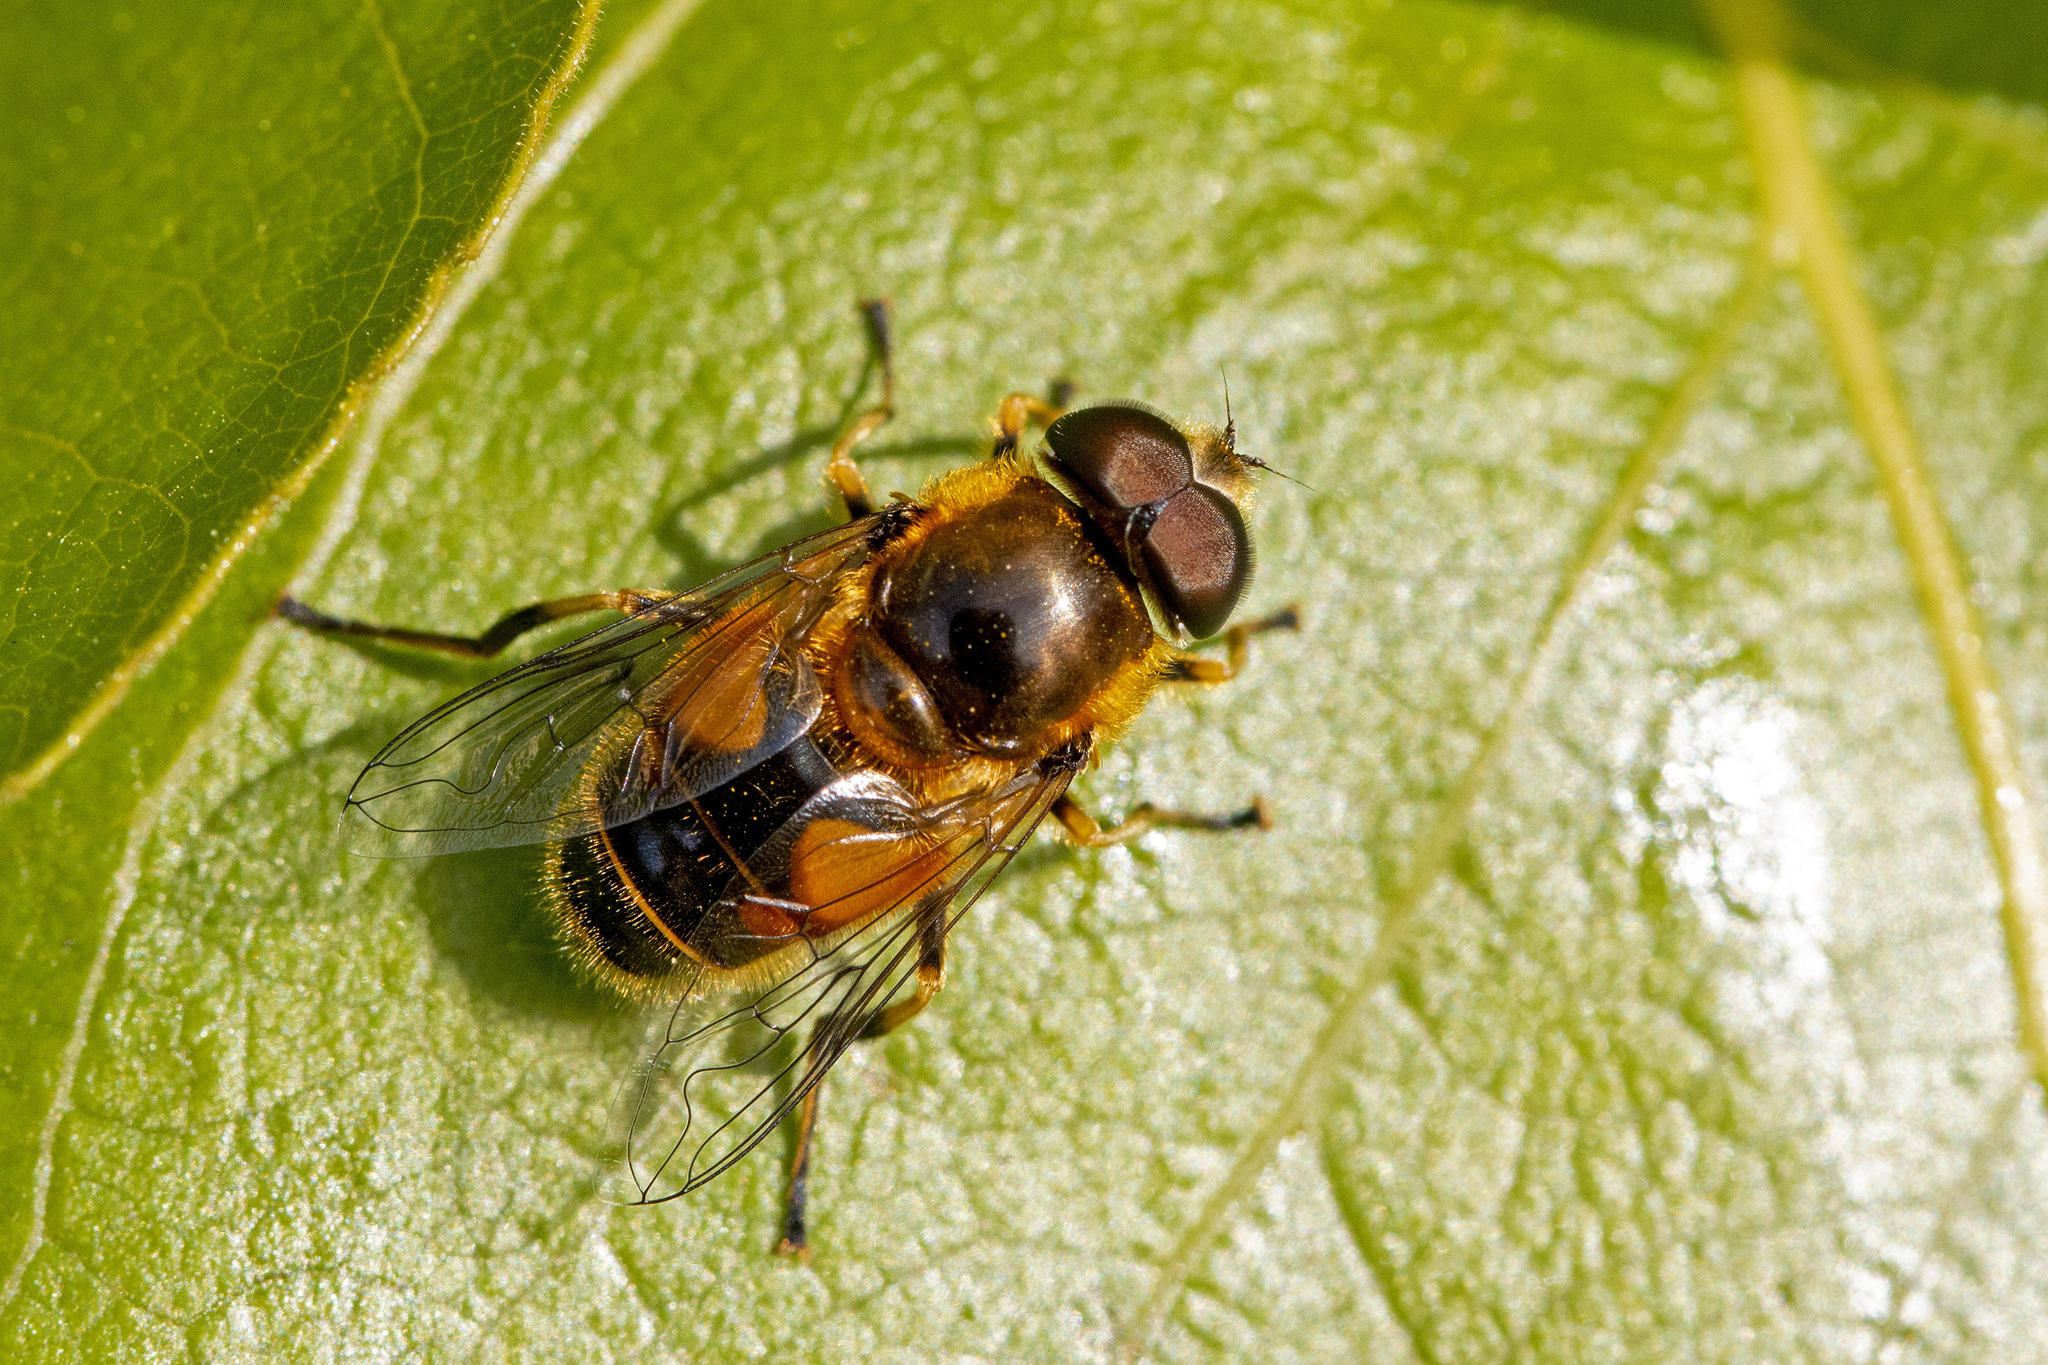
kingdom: Animalia
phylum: Arthropoda
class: Insecta
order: Diptera
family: Syrphidae
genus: Cheilosia
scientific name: Cheilosia morio
